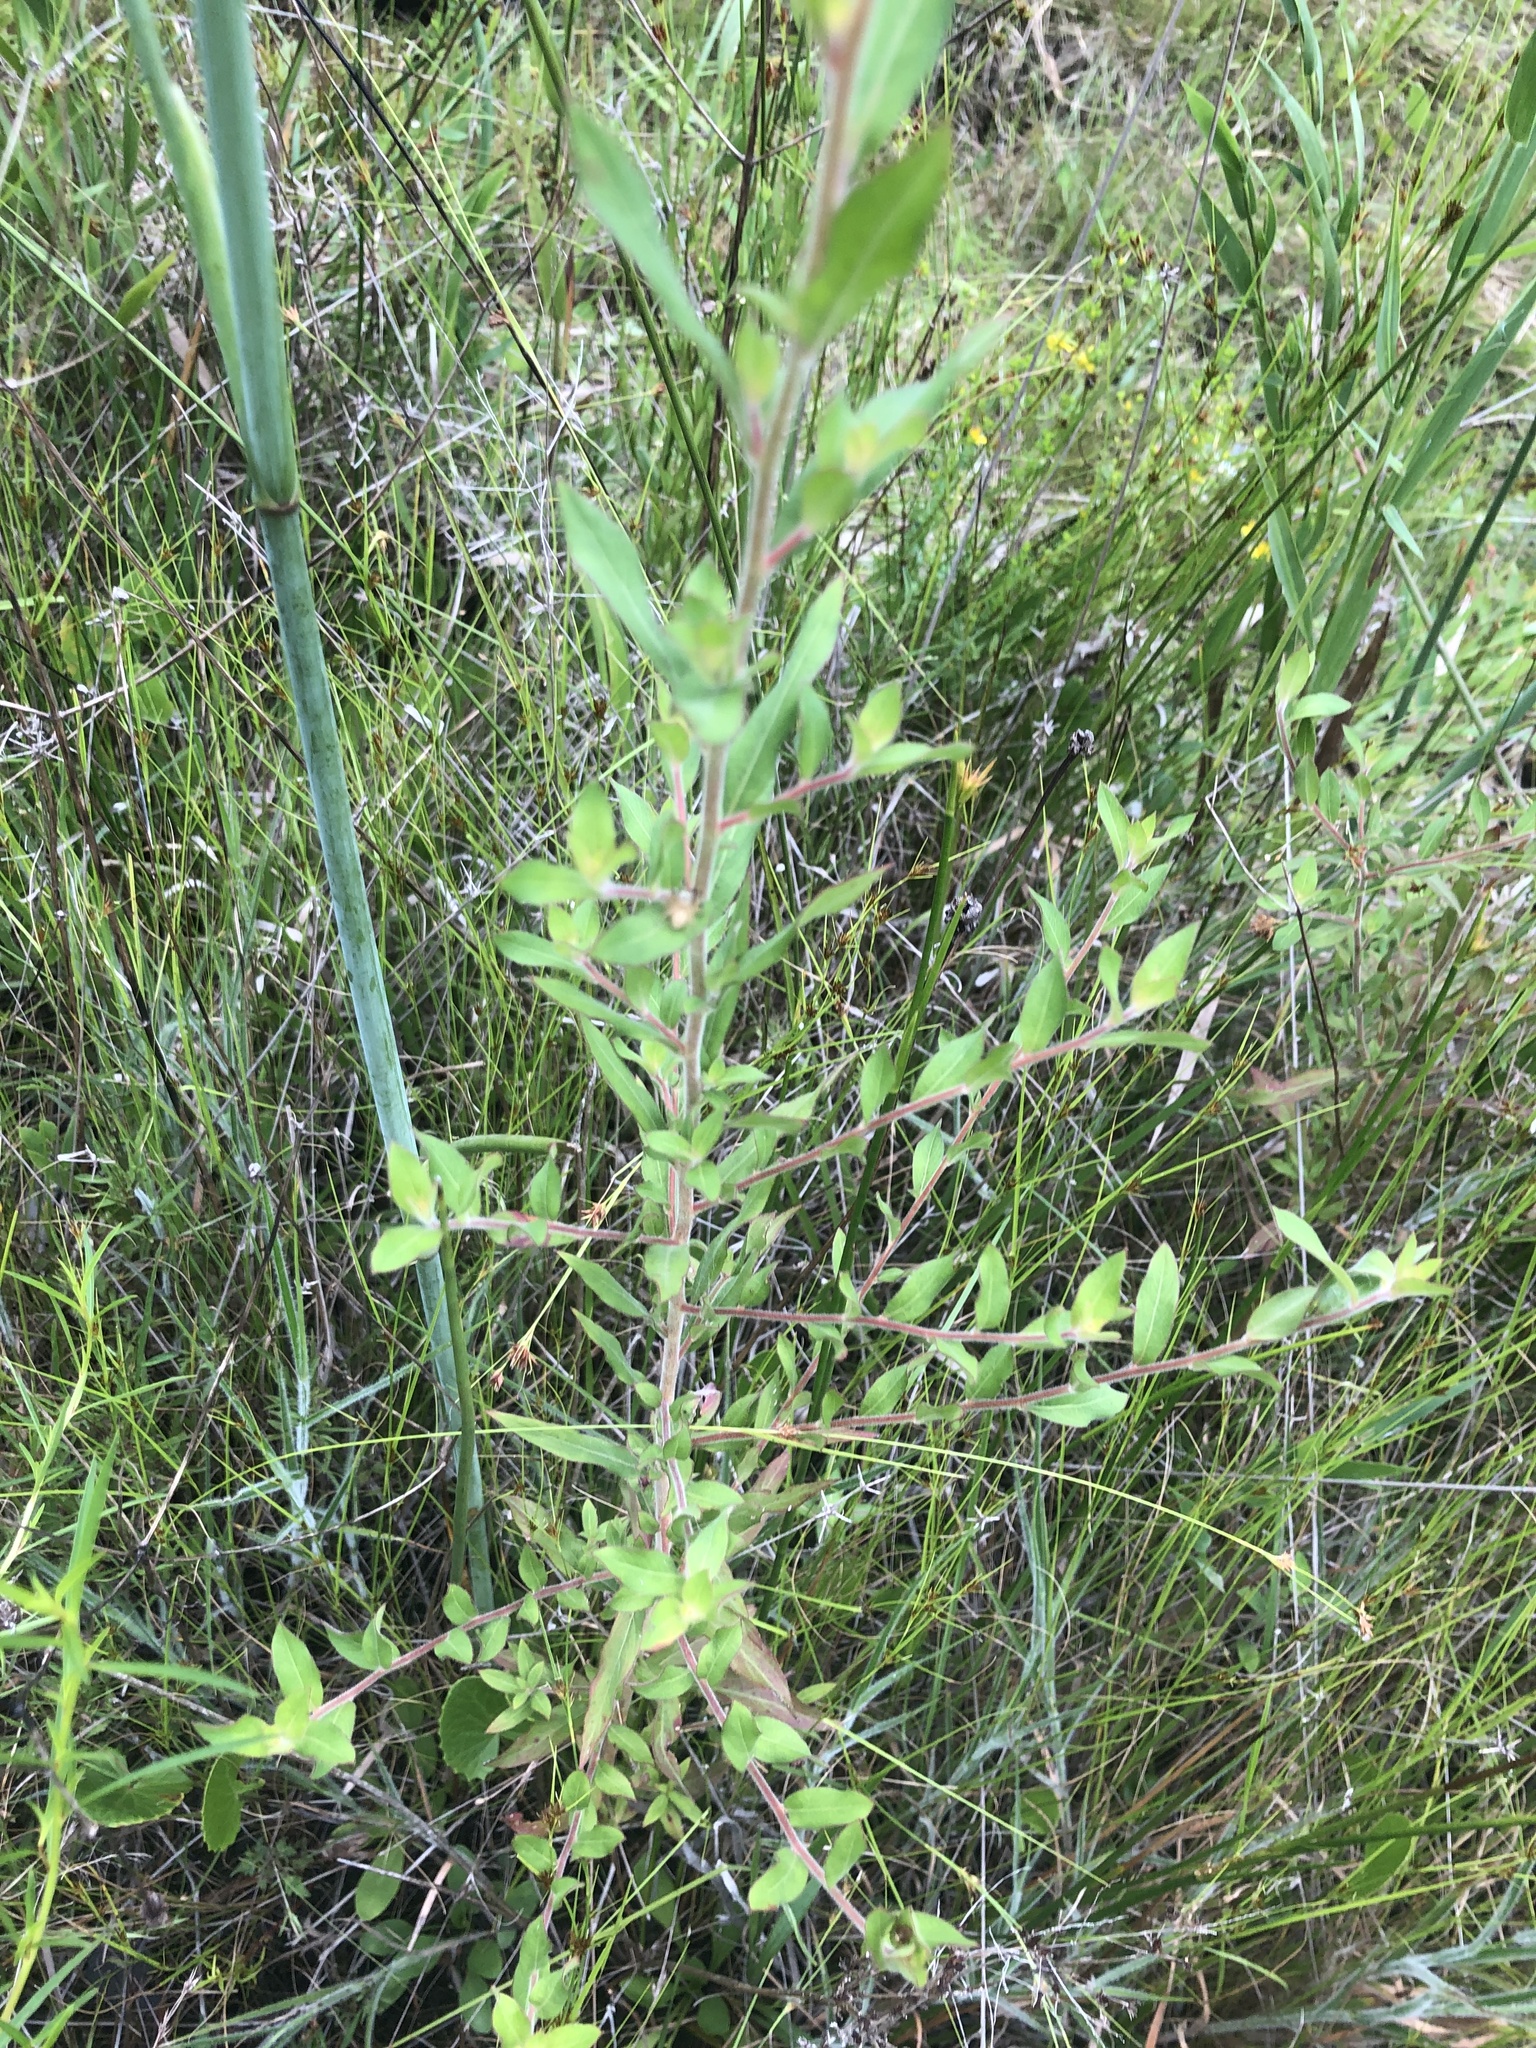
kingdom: Plantae
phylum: Tracheophyta
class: Magnoliopsida
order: Myrtales
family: Onagraceae
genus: Ludwigia
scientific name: Ludwigia pilosa
